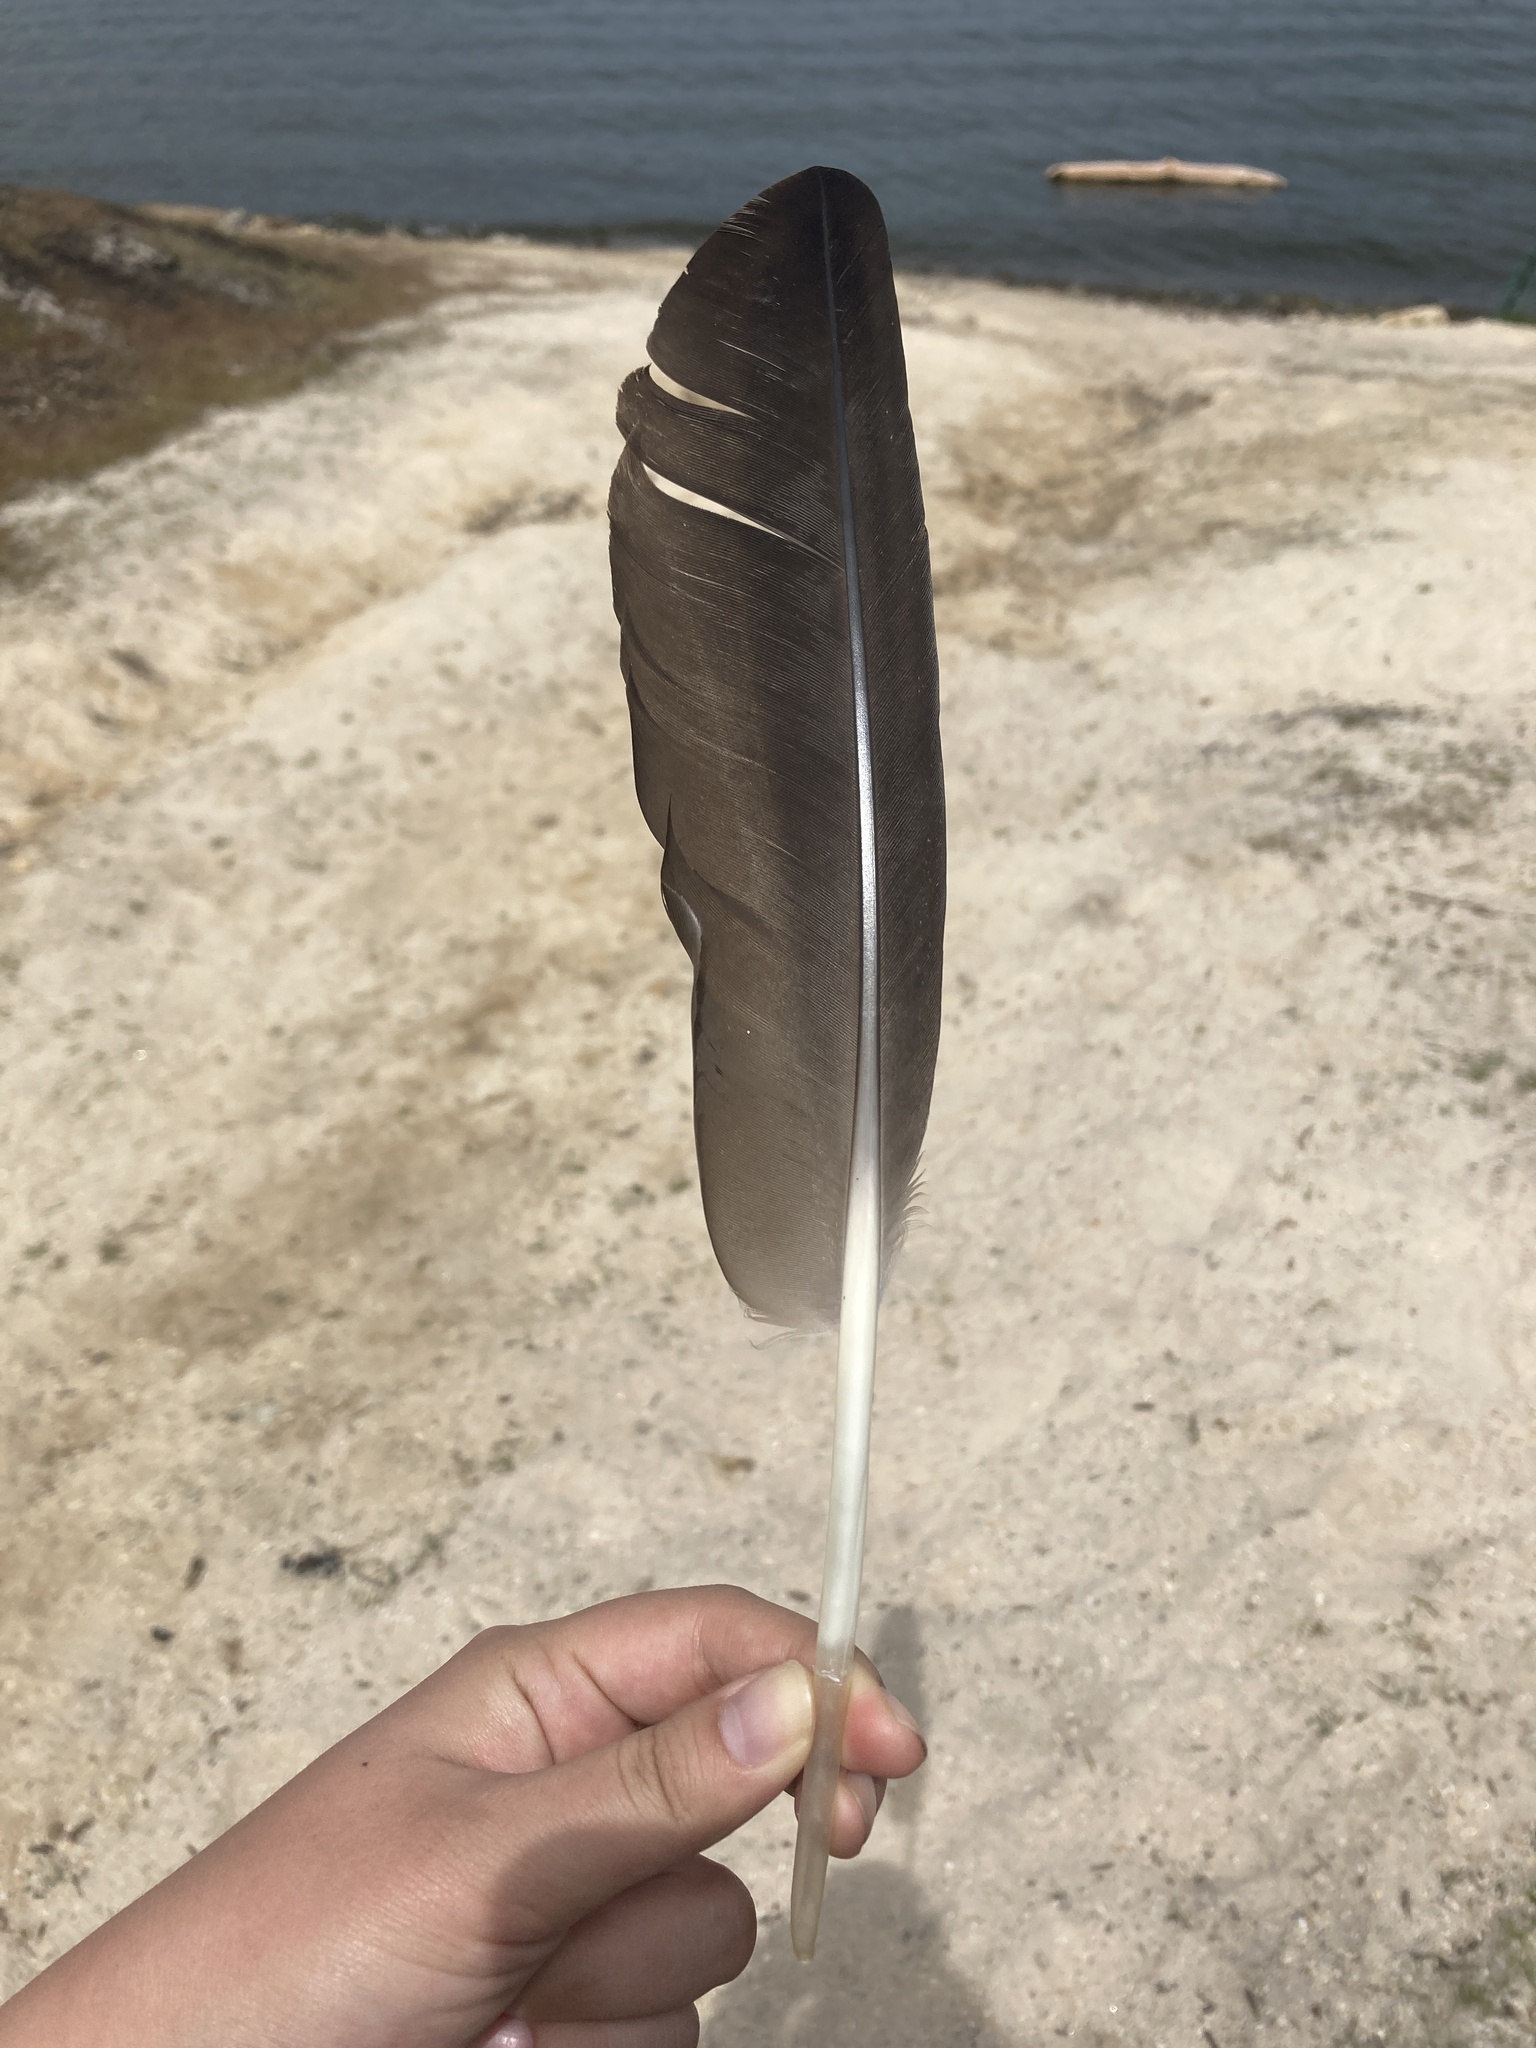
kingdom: Animalia
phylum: Chordata
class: Aves
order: Anseriformes
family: Anatidae
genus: Branta
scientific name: Branta canadensis
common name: Canada goose
